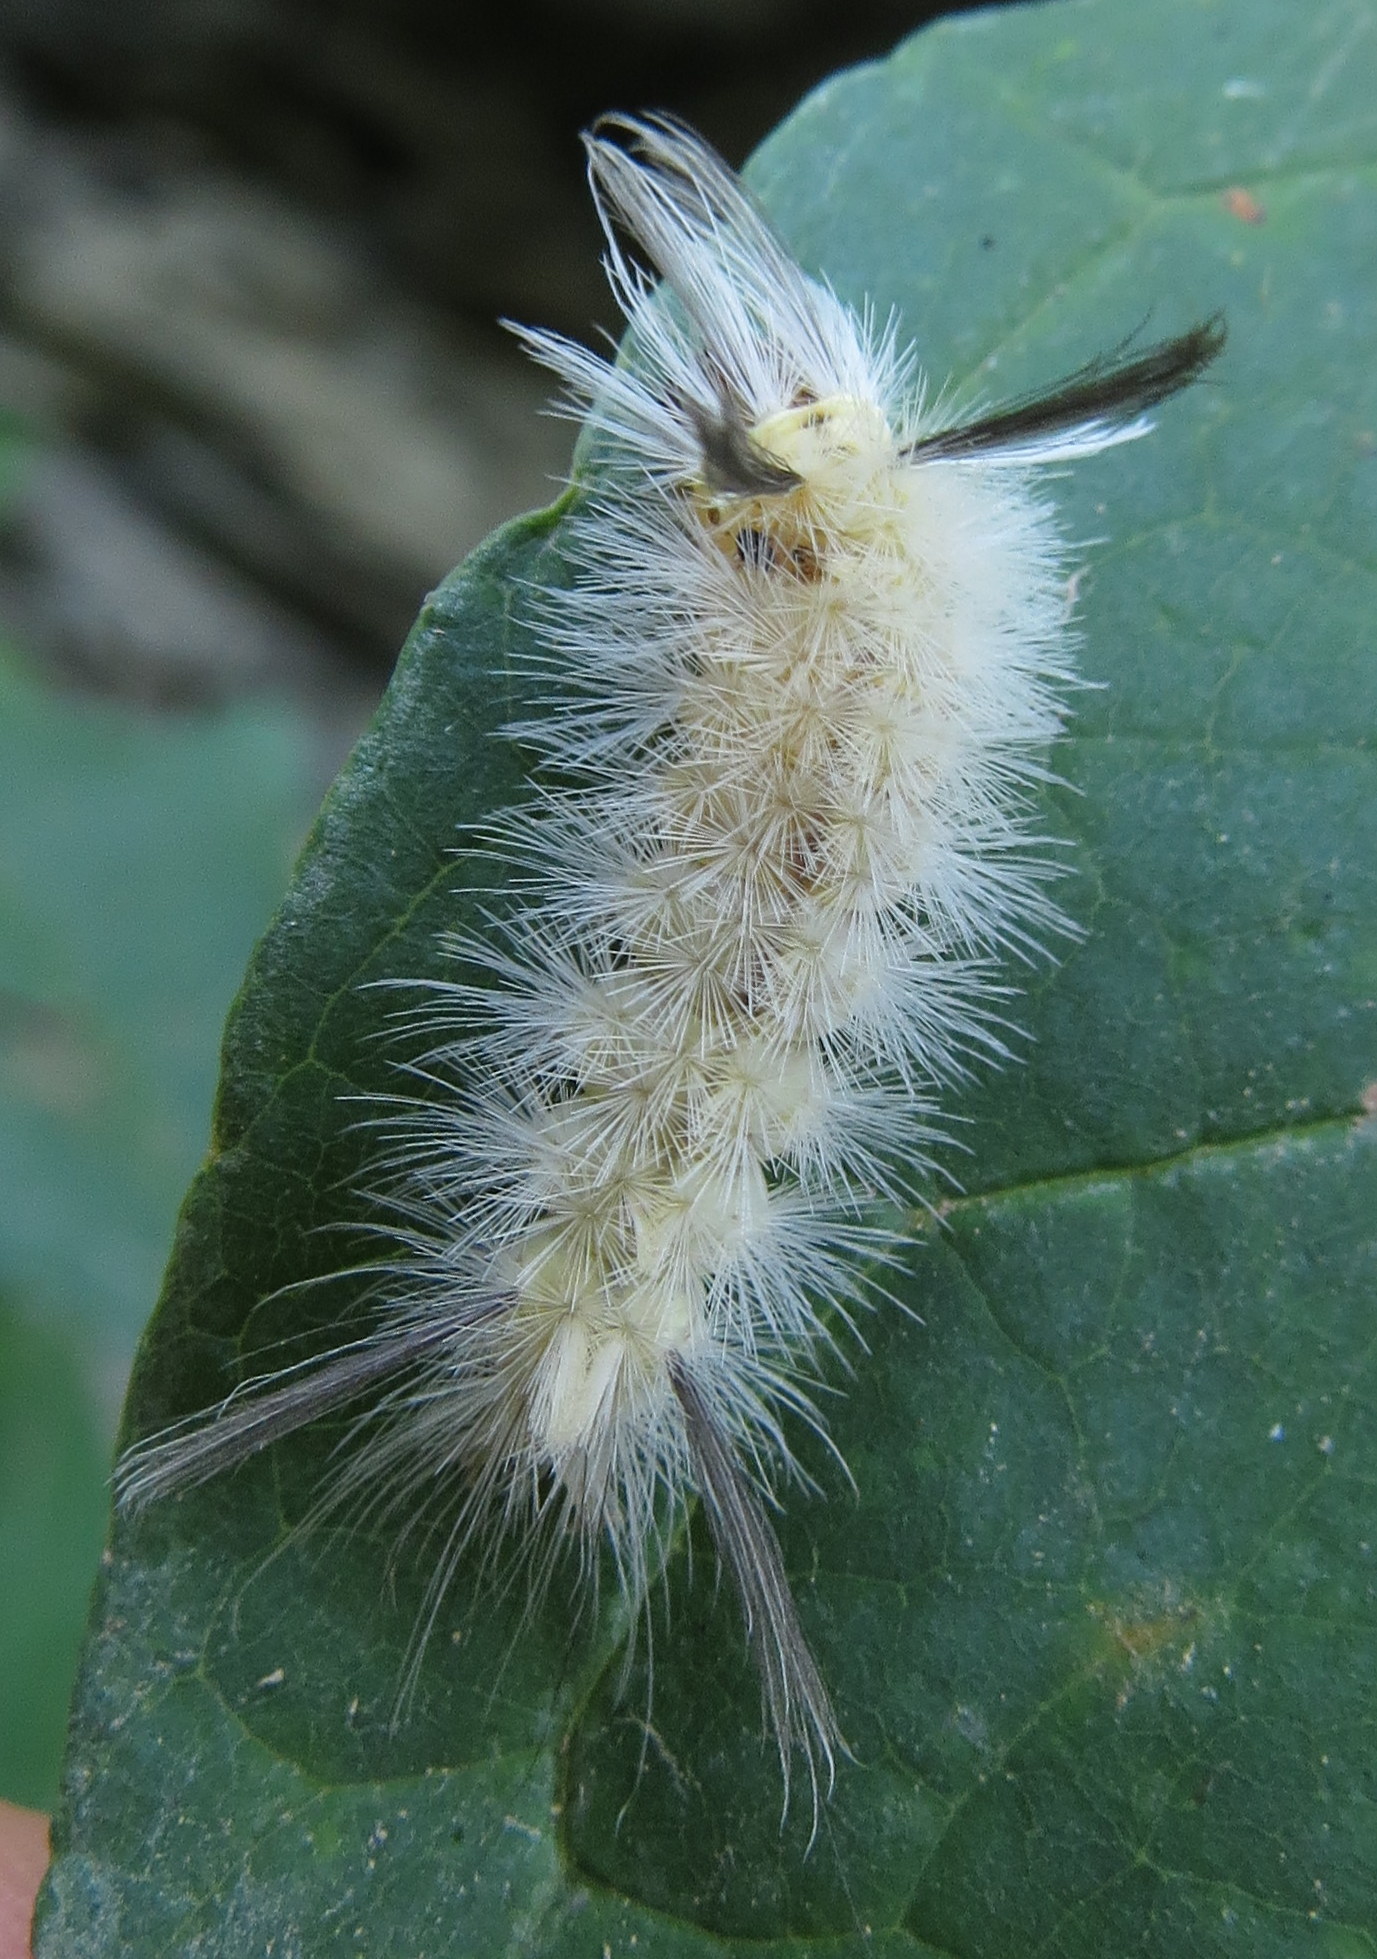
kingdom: Animalia
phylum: Arthropoda
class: Insecta
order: Lepidoptera
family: Erebidae
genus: Halysidota
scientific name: Halysidota tessellaris
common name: Banded tussock moth
